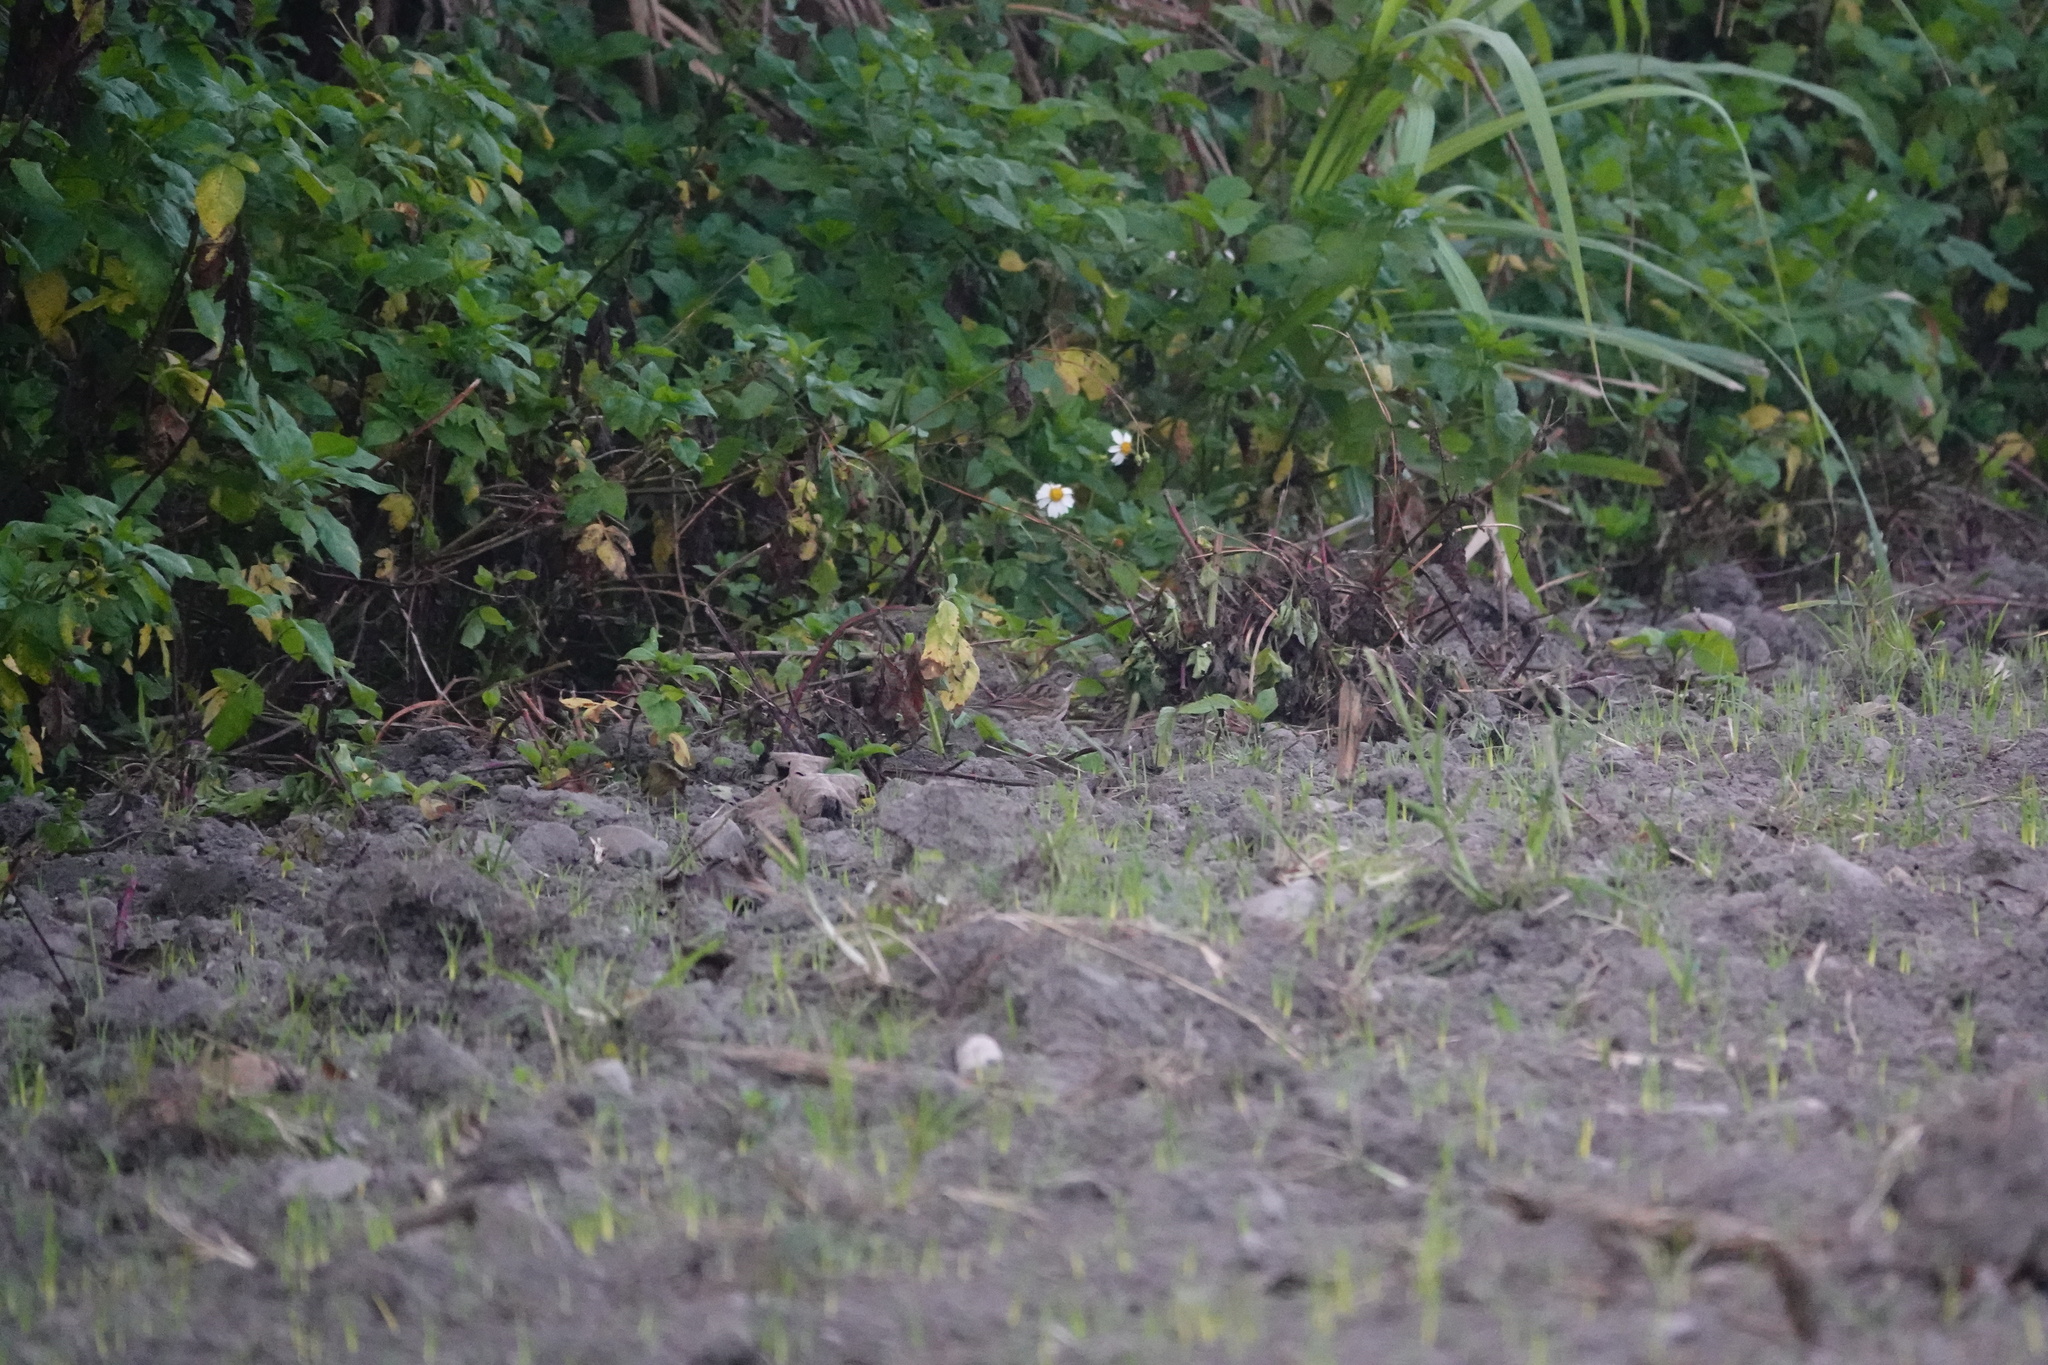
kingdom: Animalia
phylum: Chordata
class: Aves
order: Passeriformes
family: Emberizidae
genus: Emberiza
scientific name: Emberiza spodocephala
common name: Black-faced bunting
